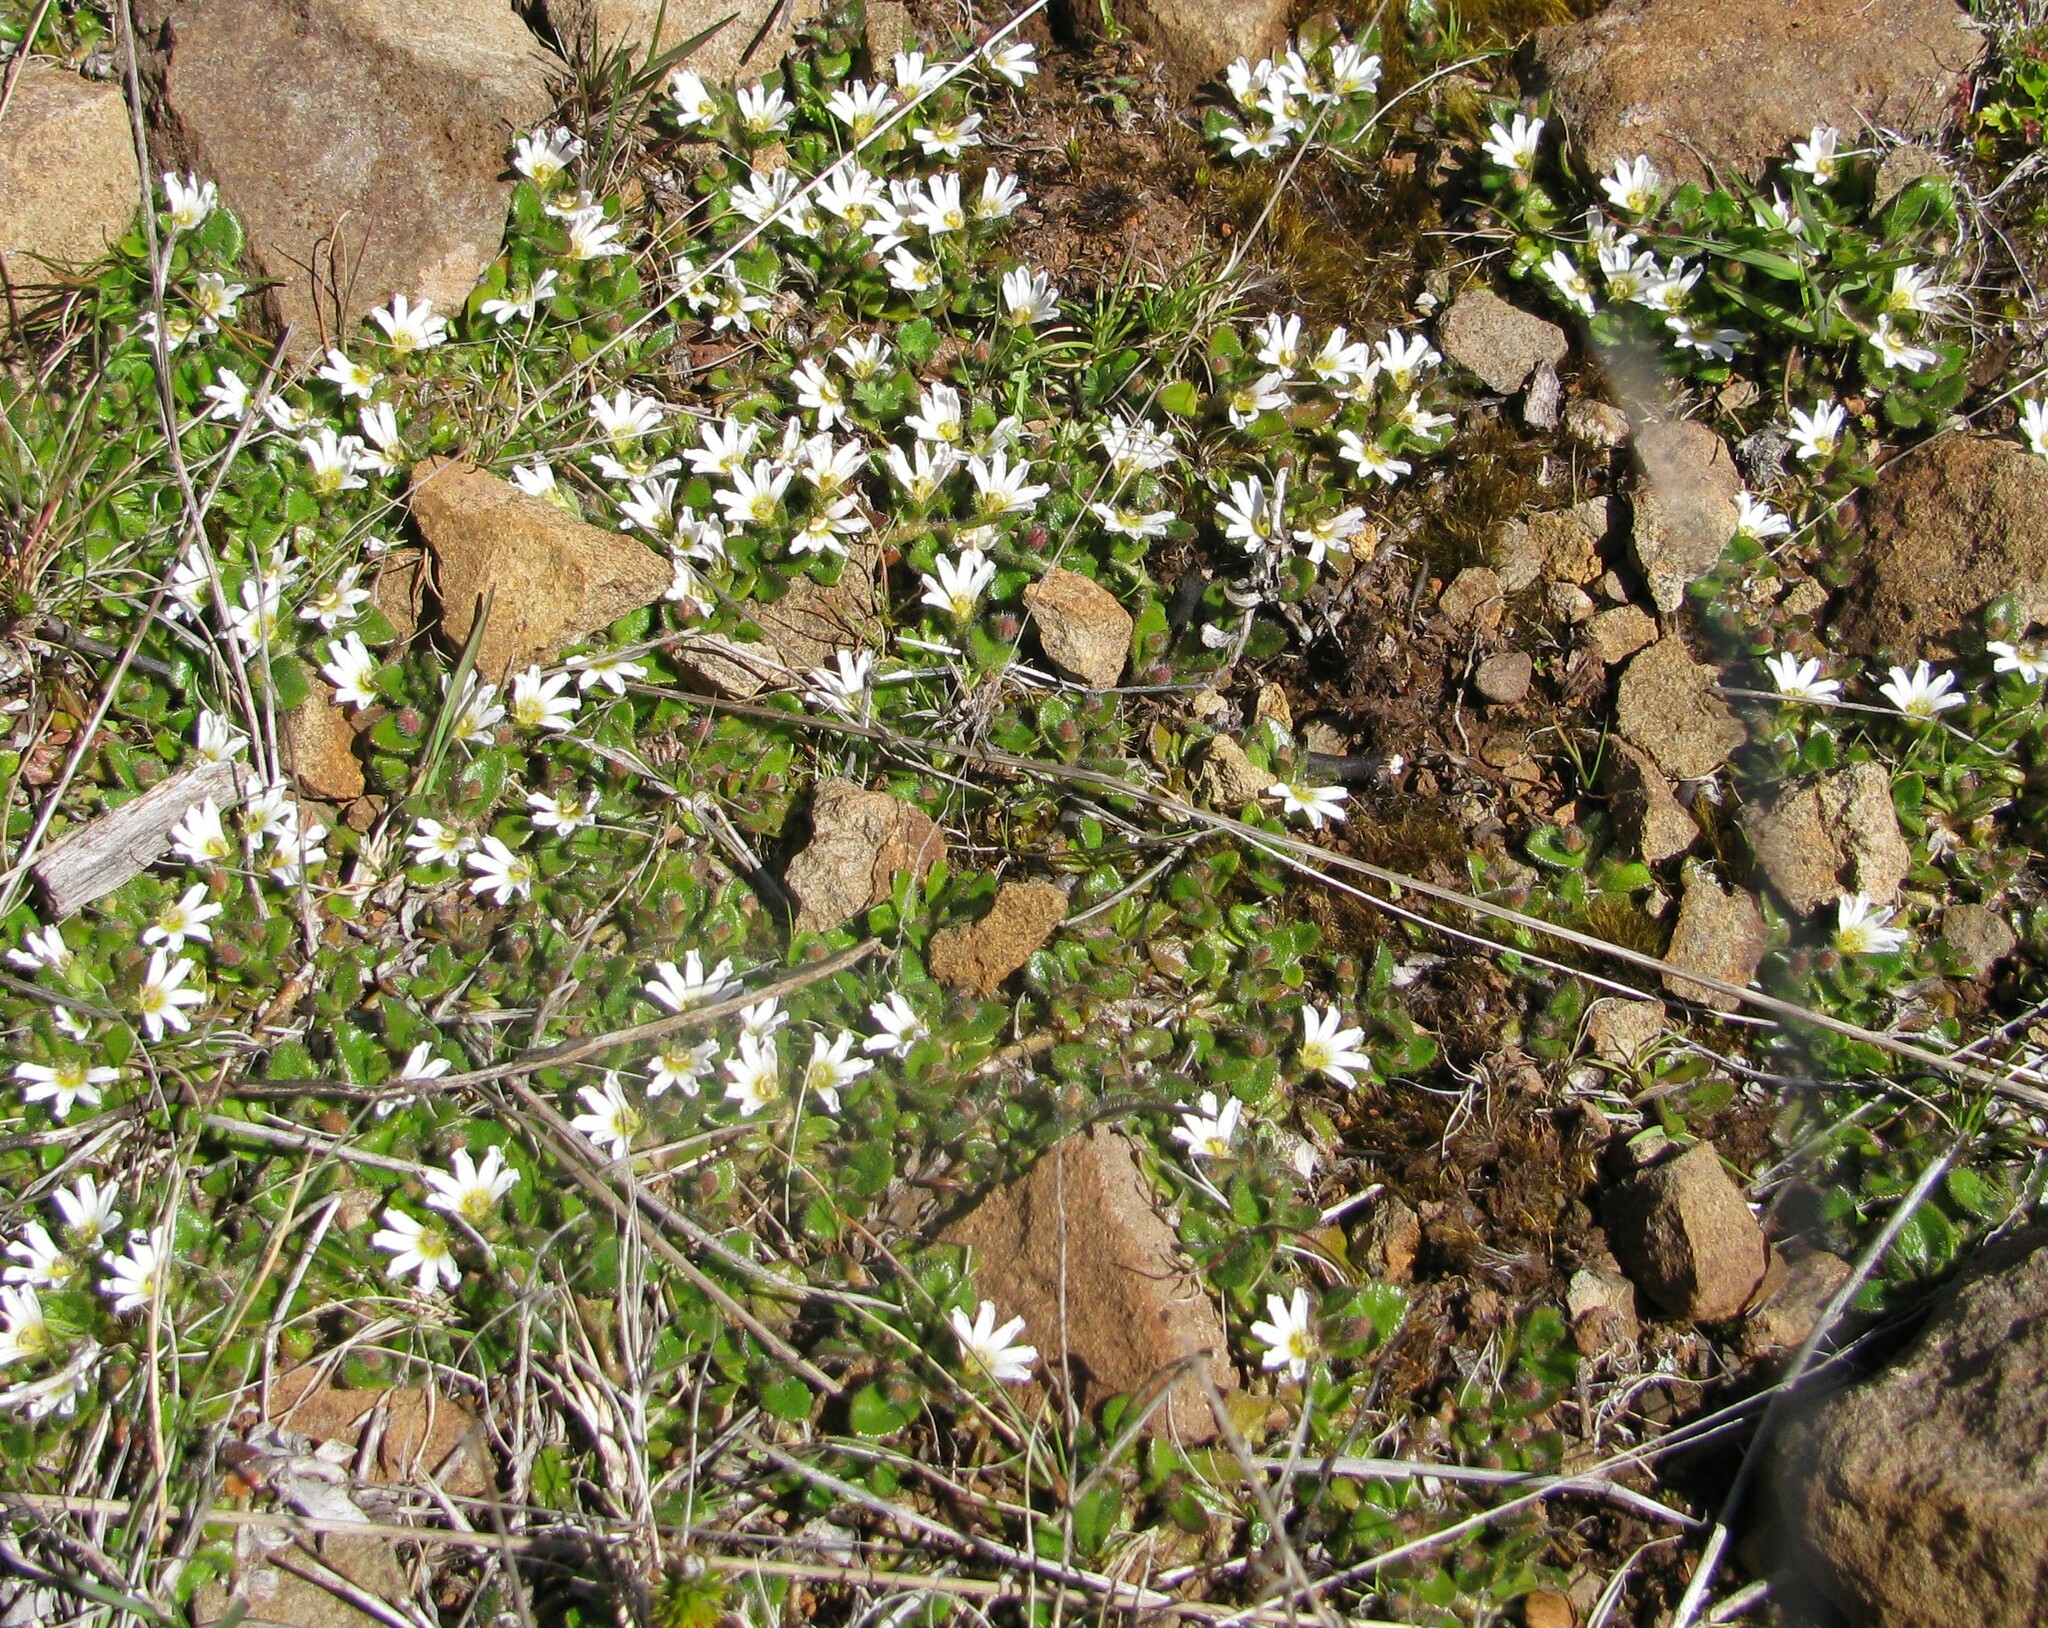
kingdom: Plantae
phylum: Tracheophyta
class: Magnoliopsida
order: Asterales
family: Goodeniaceae
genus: Scaevola
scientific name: Scaevola hookeri
